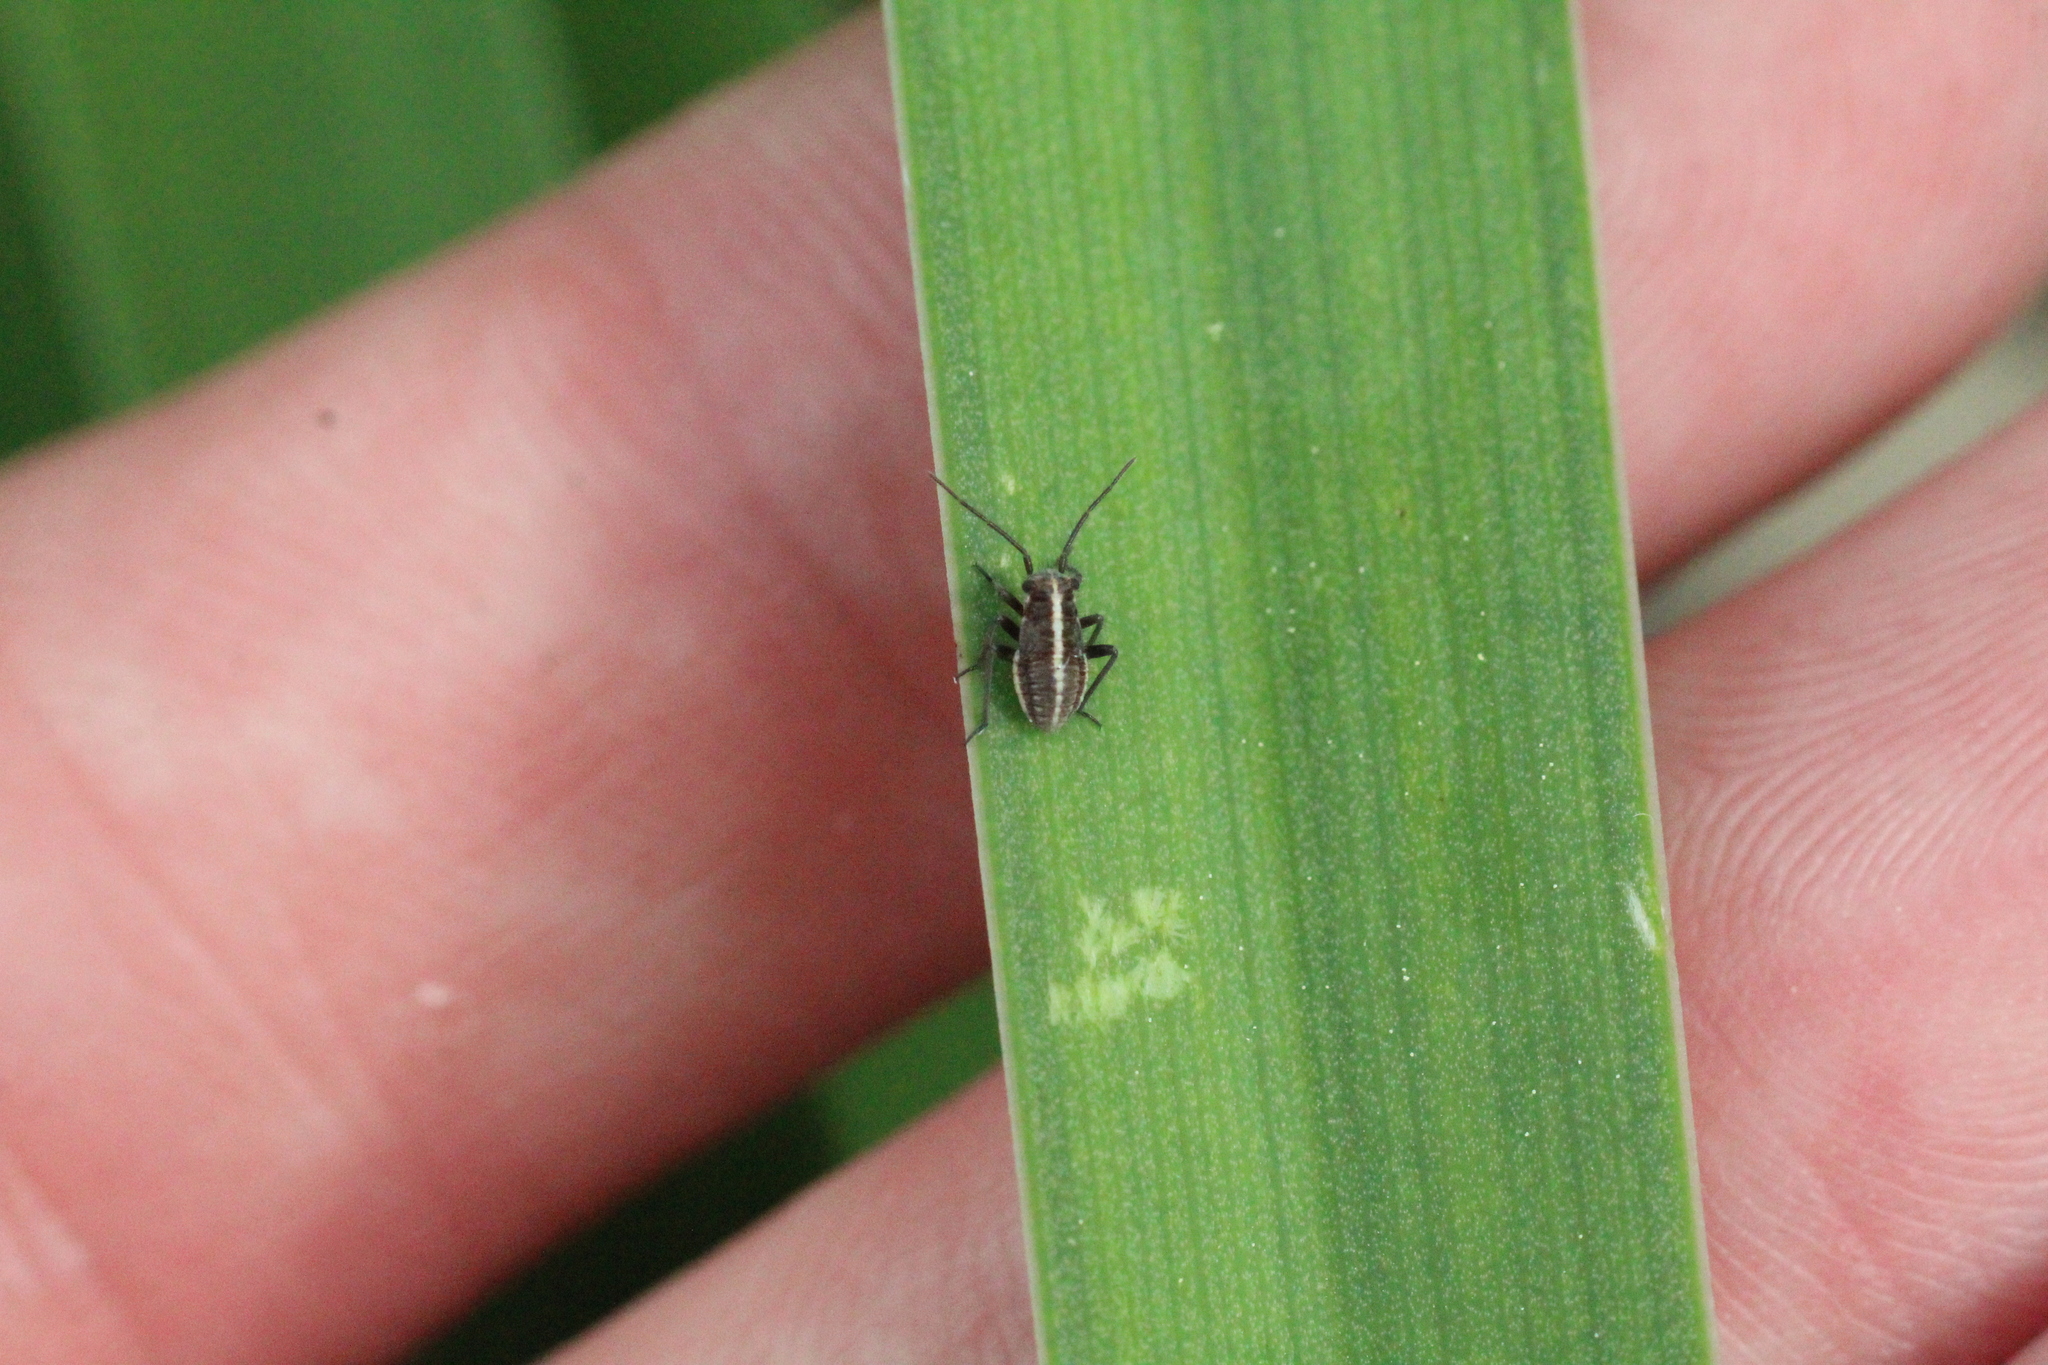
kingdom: Animalia
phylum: Arthropoda
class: Insecta
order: Hemiptera
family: Miridae
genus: Horistus
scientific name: Horistus orientalis
